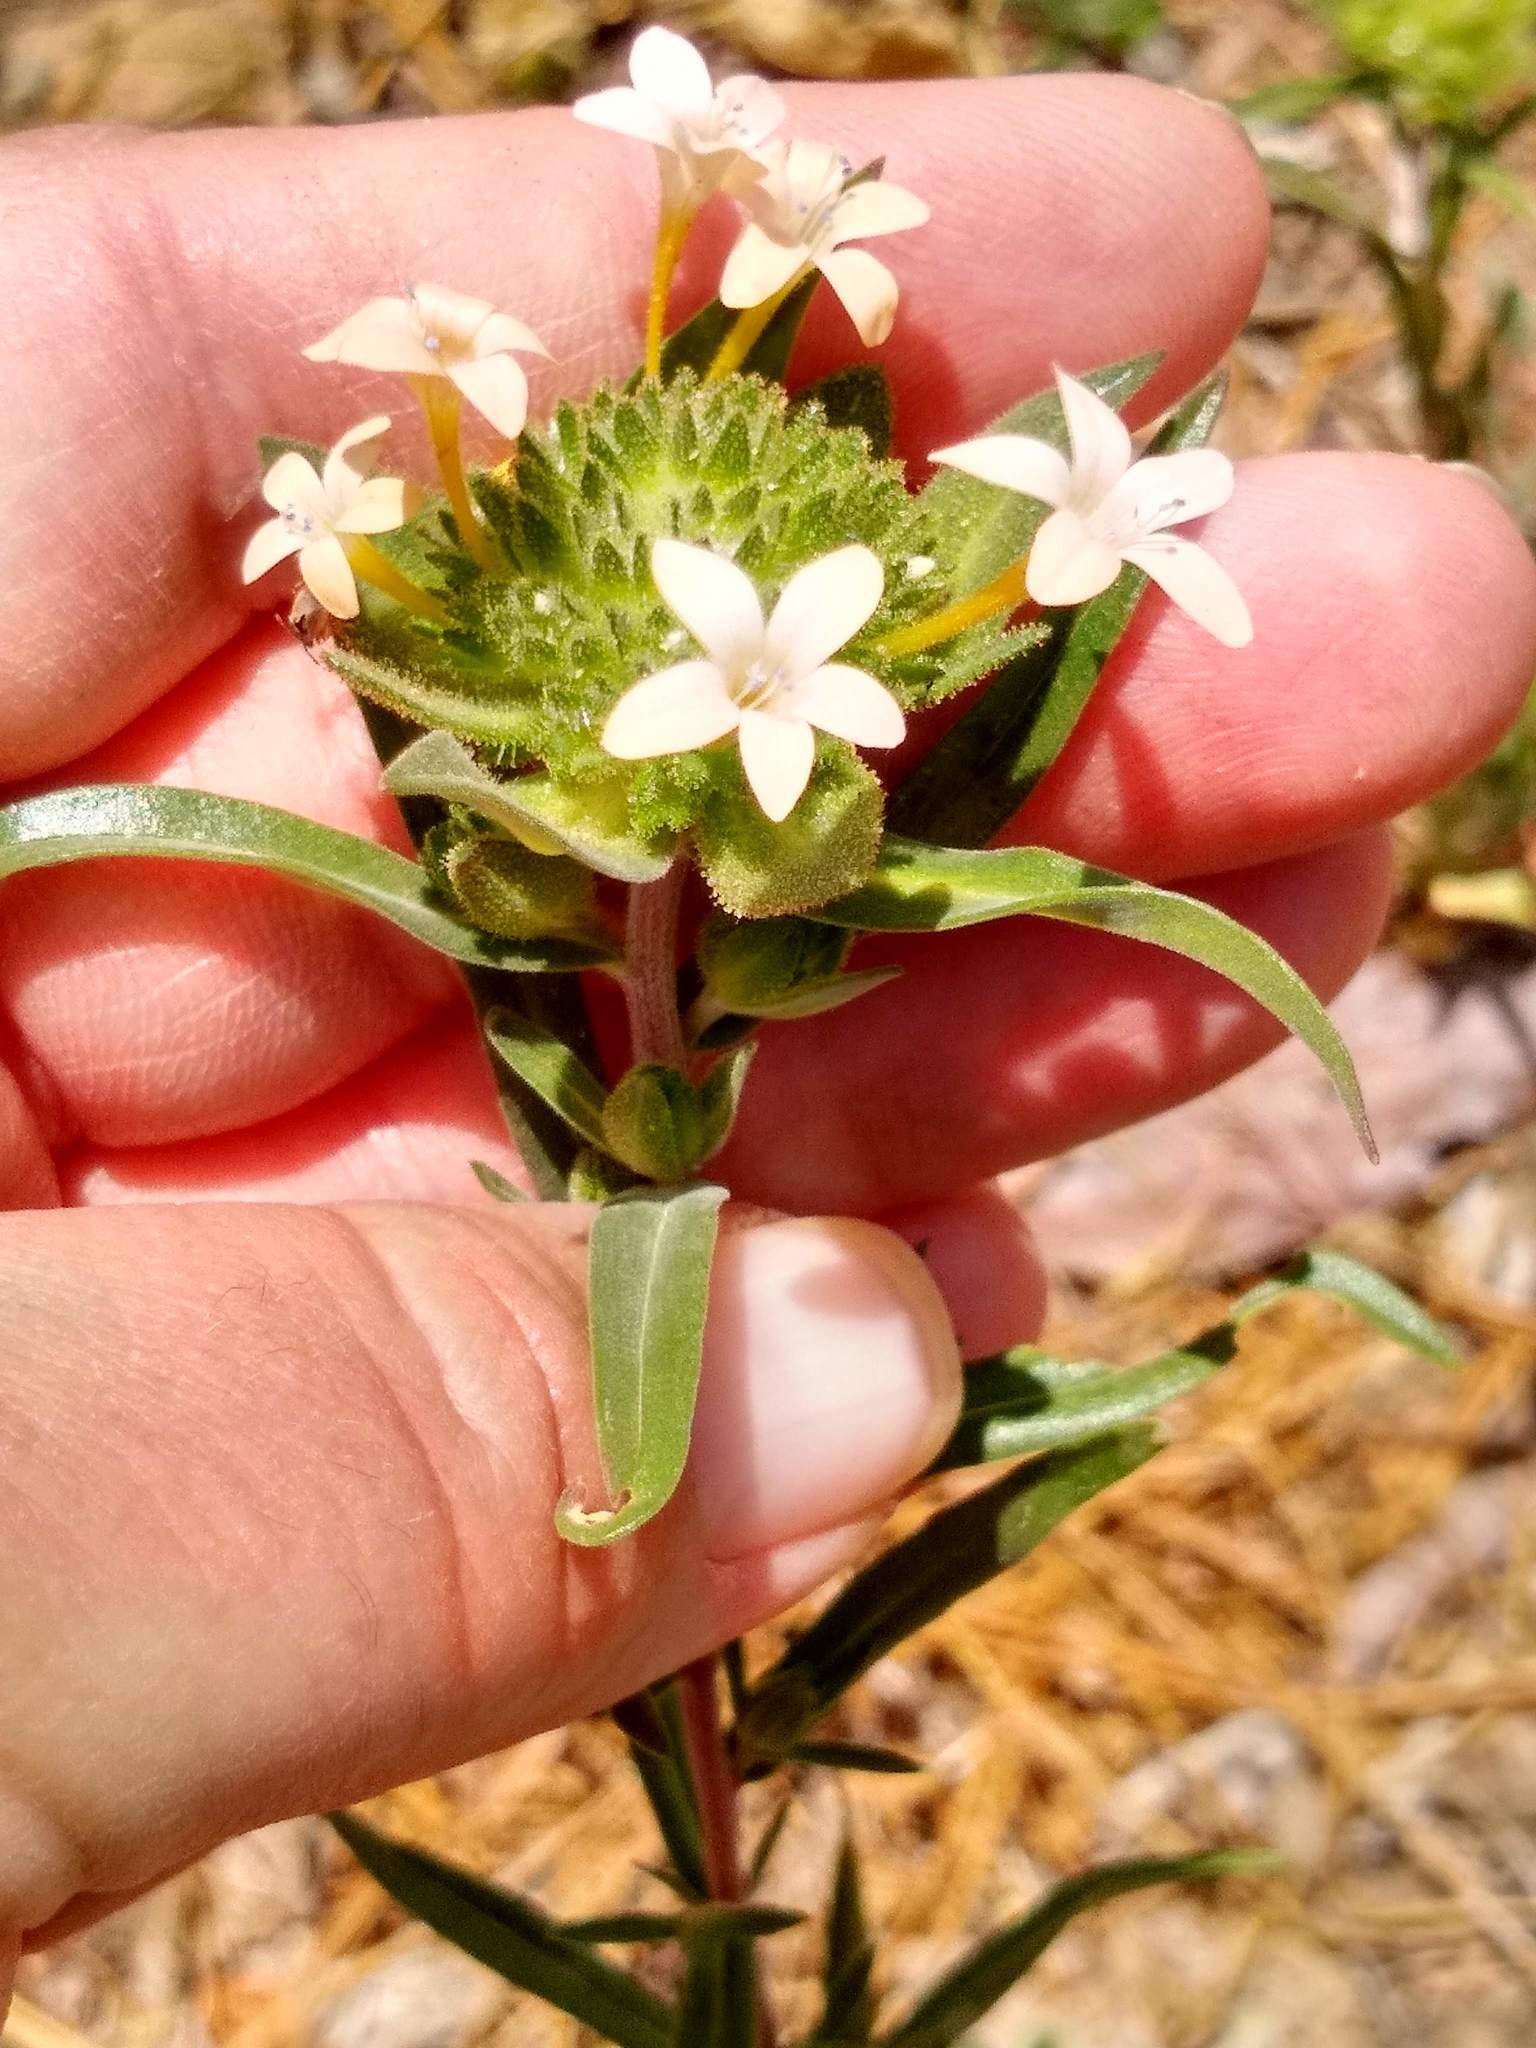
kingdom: Plantae
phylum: Tracheophyta
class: Magnoliopsida
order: Ericales
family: Polemoniaceae
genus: Collomia
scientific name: Collomia grandiflora
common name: California strawflower
